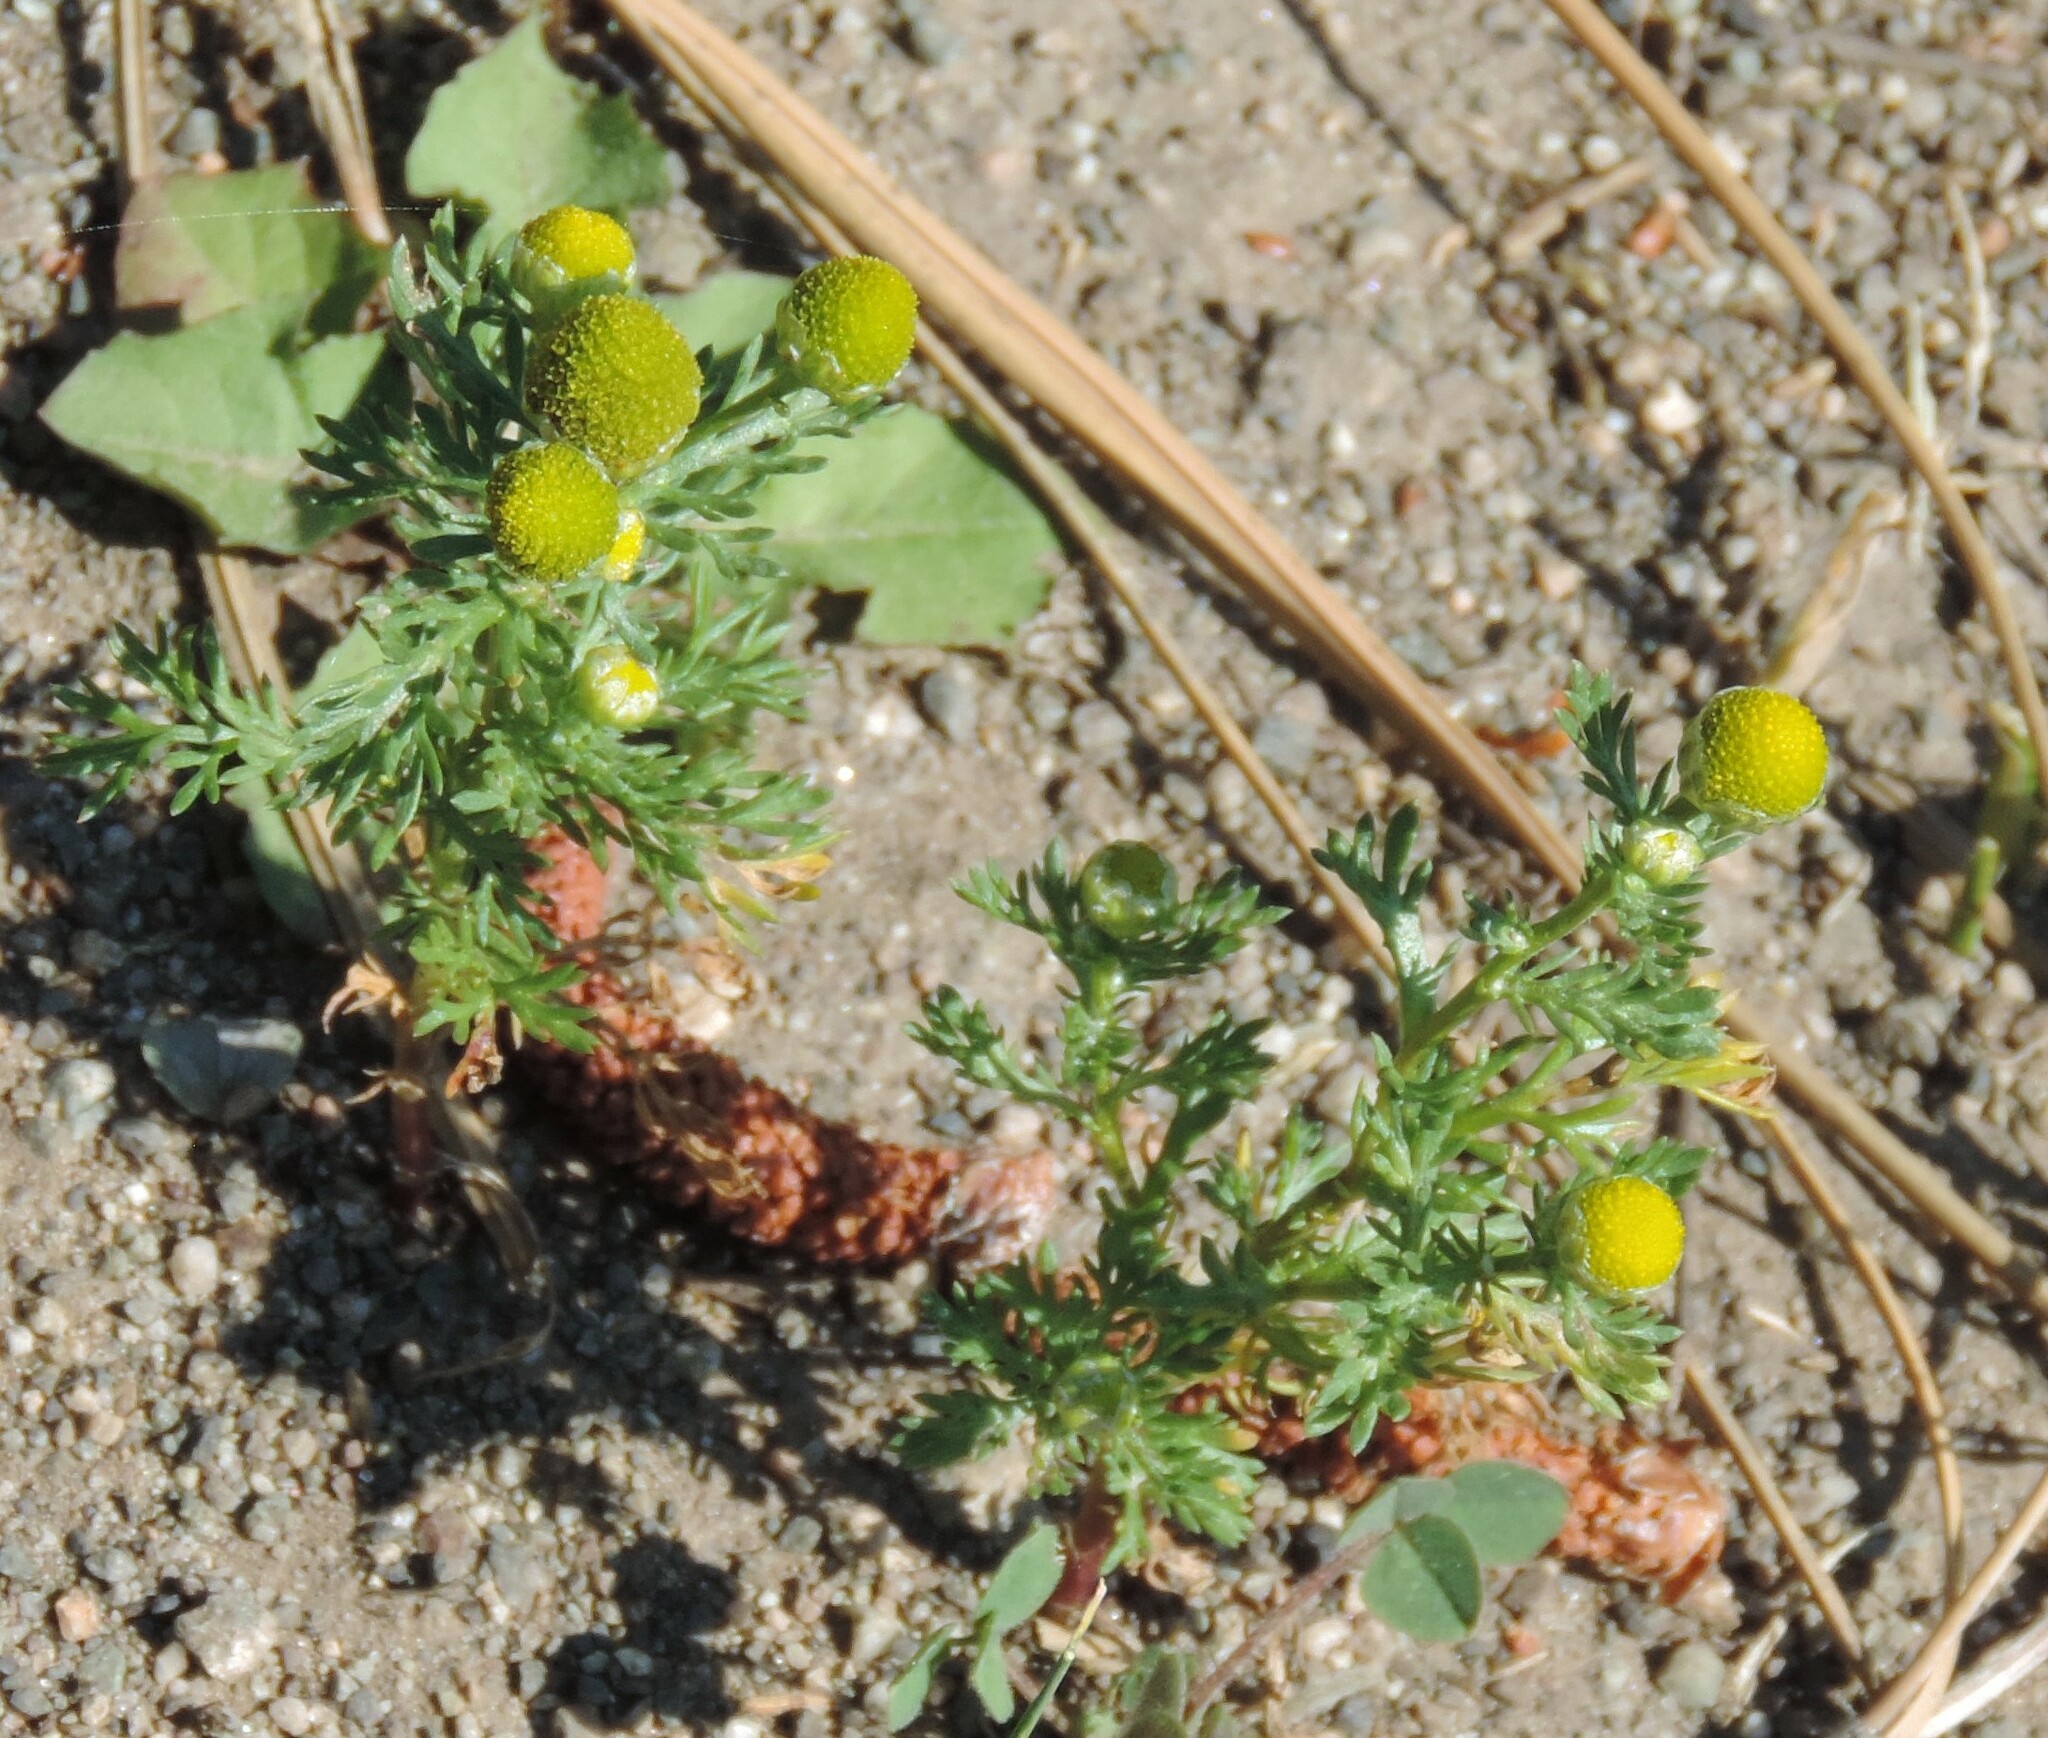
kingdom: Plantae
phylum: Tracheophyta
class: Magnoliopsida
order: Asterales
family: Asteraceae
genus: Matricaria
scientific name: Matricaria discoidea
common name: Disc mayweed
